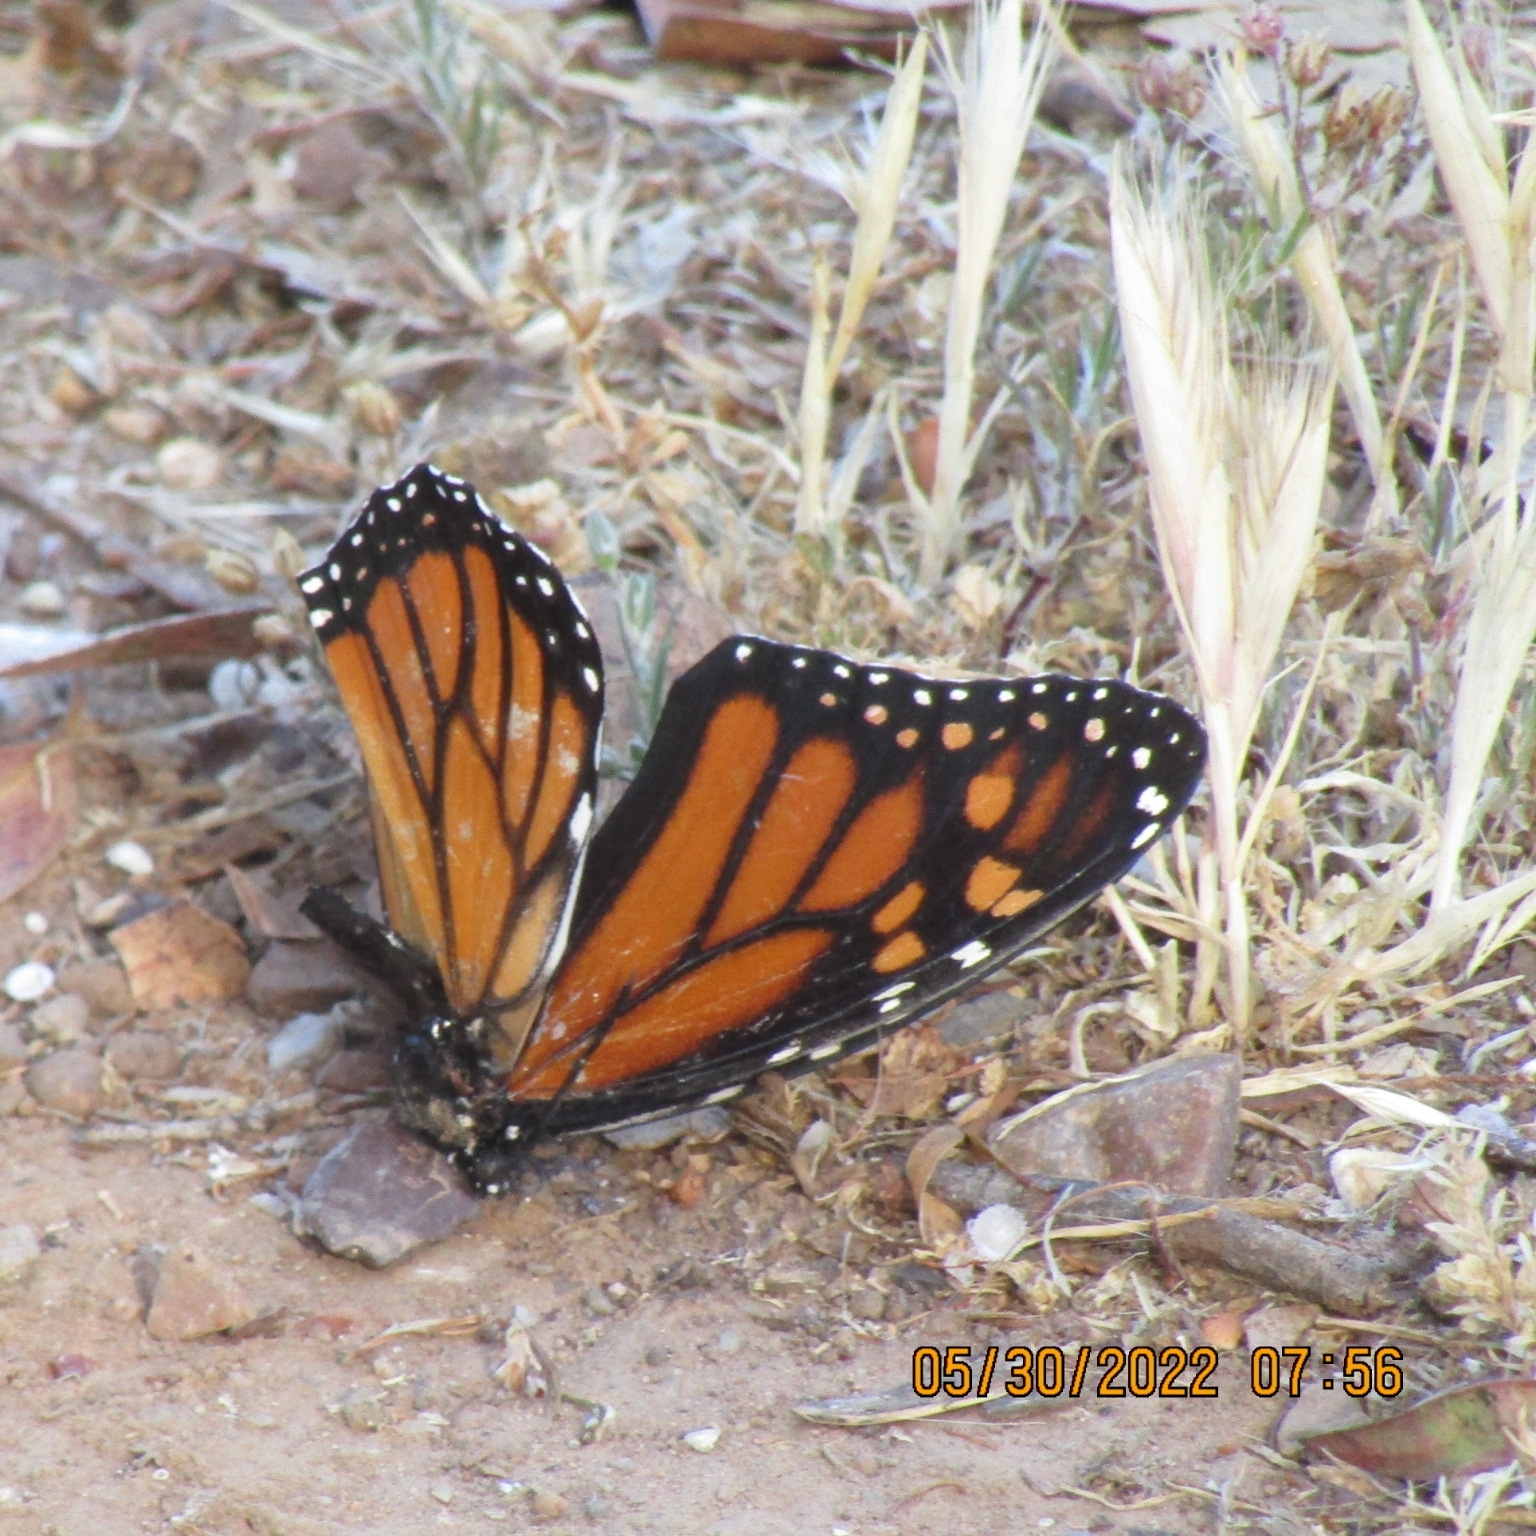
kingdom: Animalia
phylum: Arthropoda
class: Insecta
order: Lepidoptera
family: Nymphalidae
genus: Danaus
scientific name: Danaus plexippus
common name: Monarch
